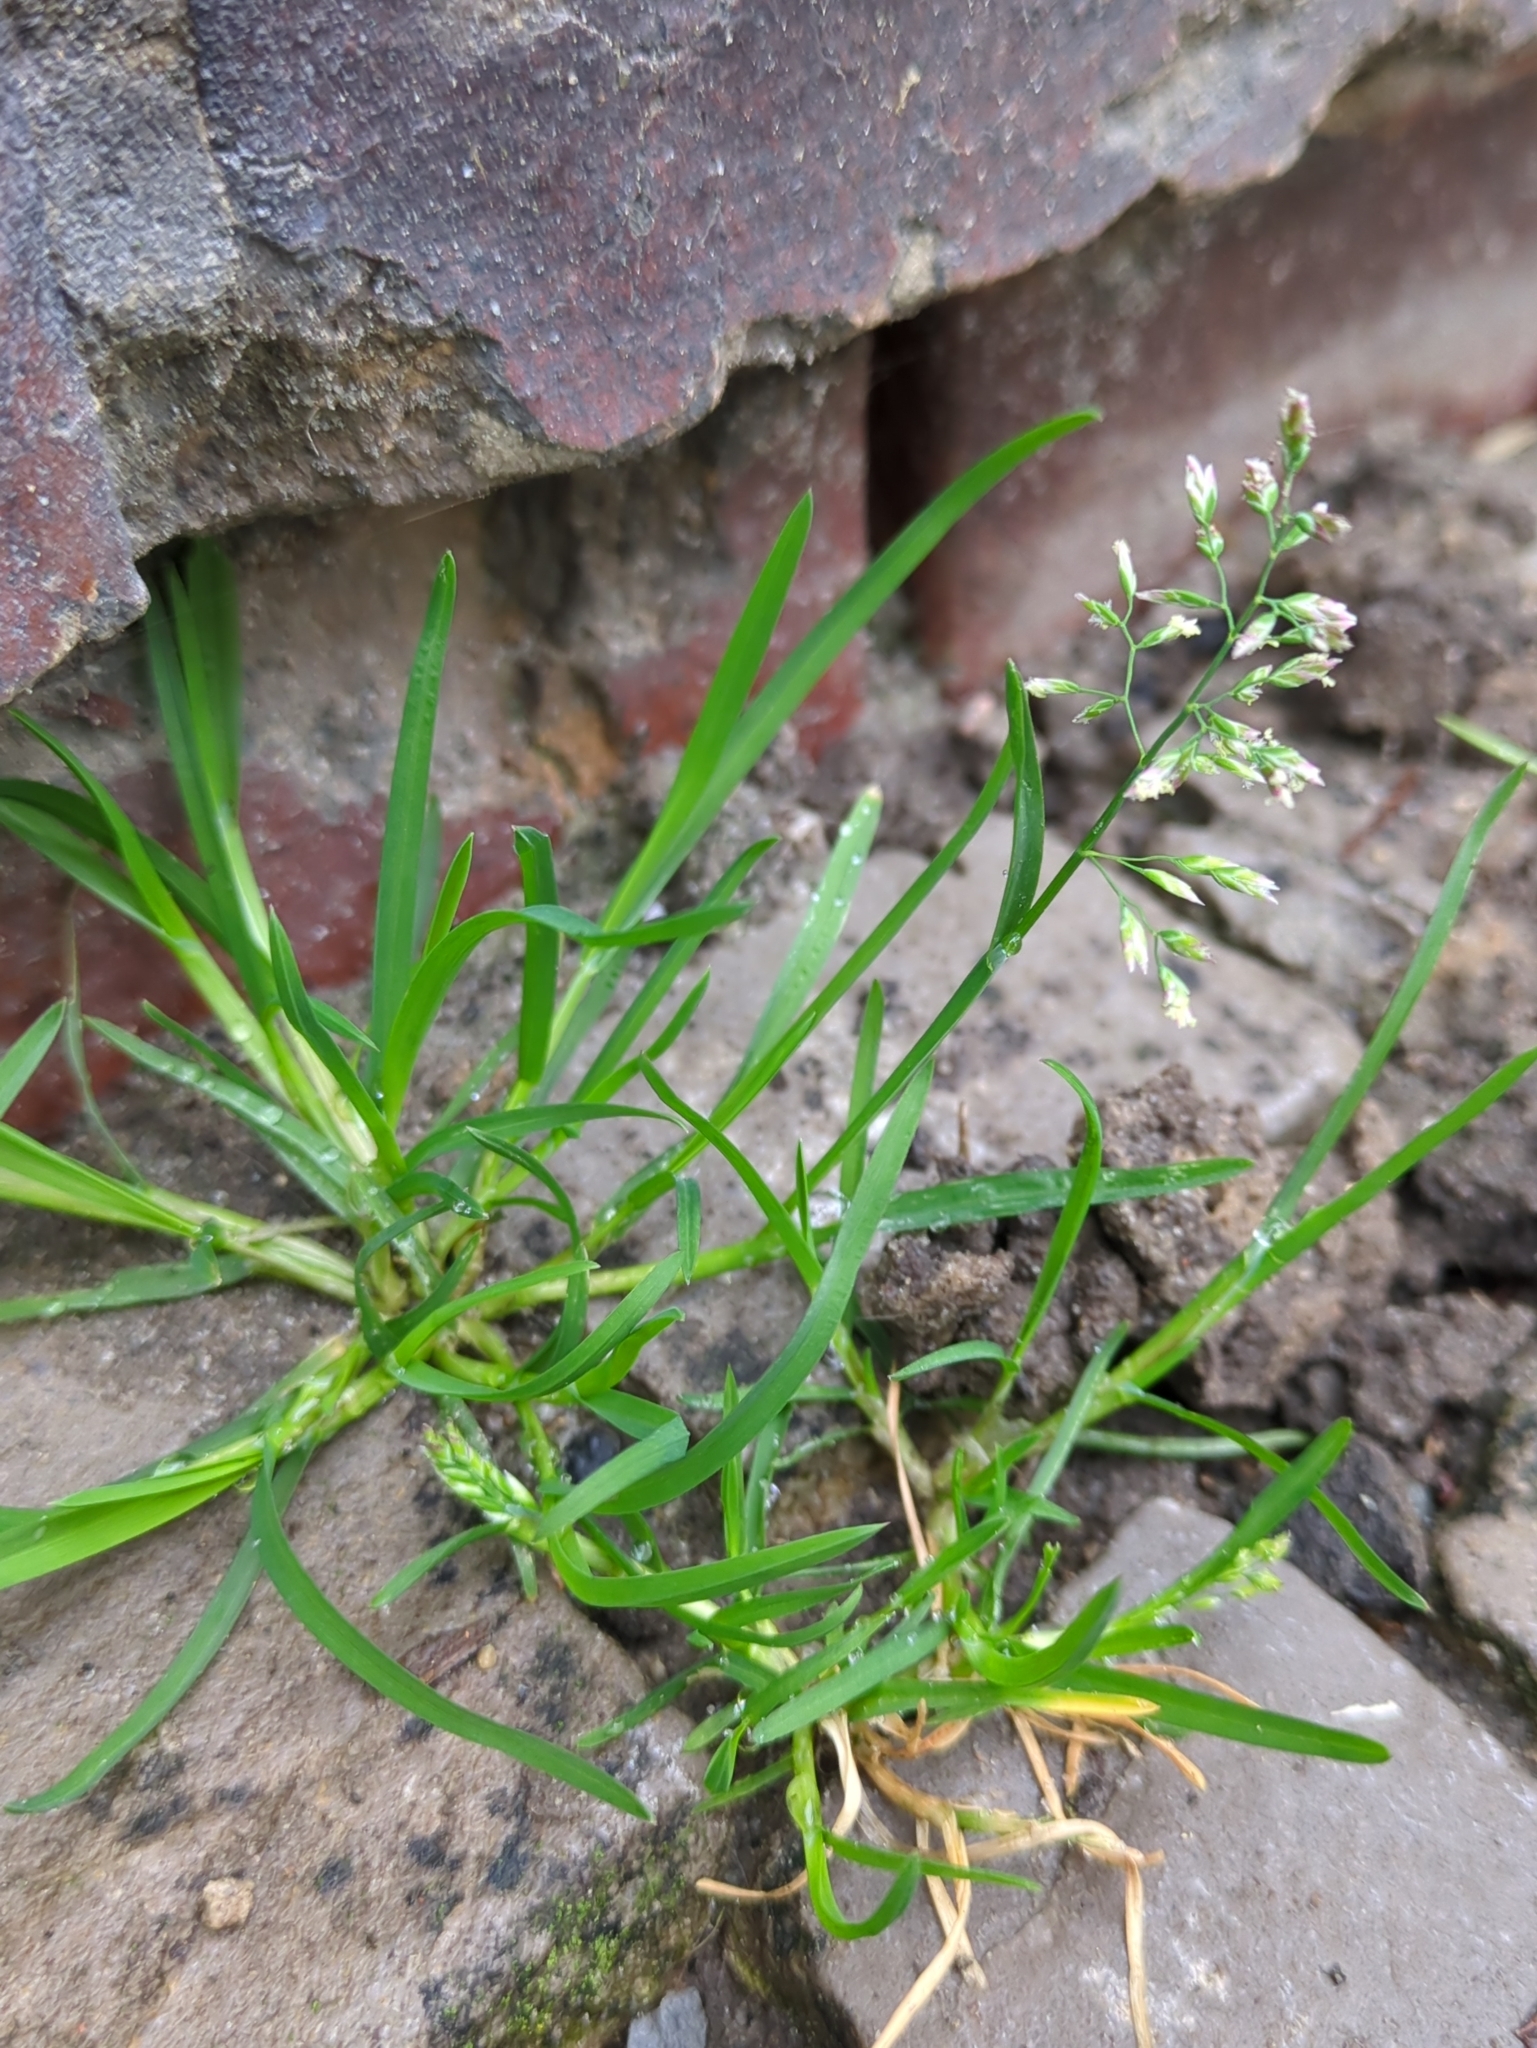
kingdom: Plantae
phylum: Tracheophyta
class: Liliopsida
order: Poales
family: Poaceae
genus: Poa
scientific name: Poa annua
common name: Annual bluegrass
